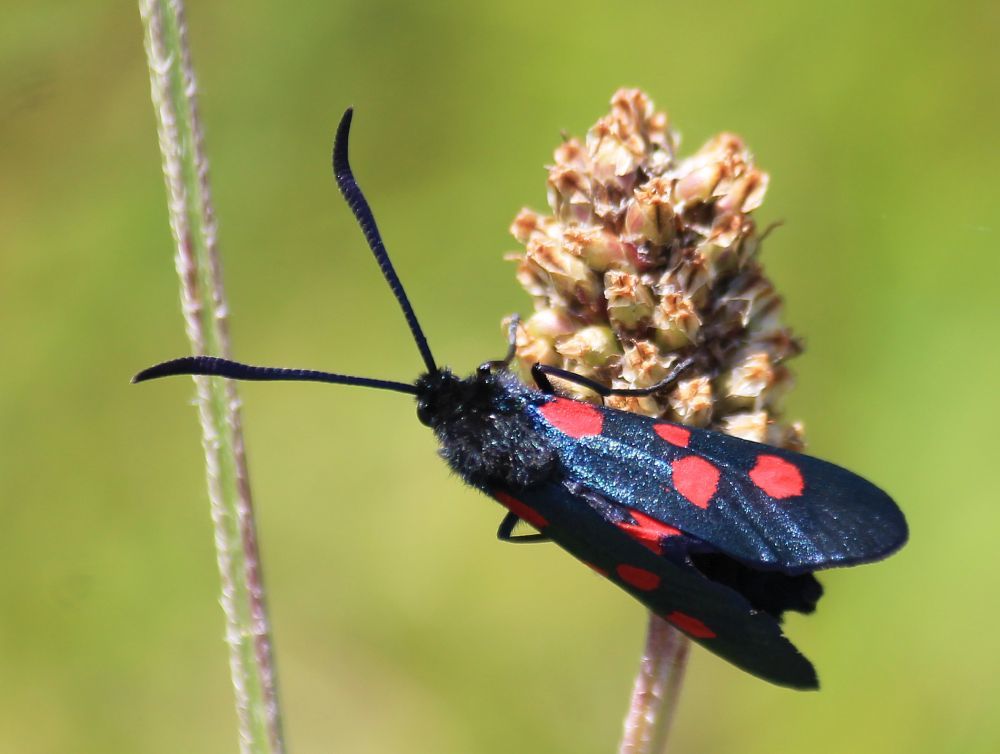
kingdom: Animalia
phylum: Arthropoda
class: Insecta
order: Lepidoptera
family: Zygaenidae
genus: Zygaena
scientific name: Zygaena lonicerae
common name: Narrow-bordered five-spot burnet
